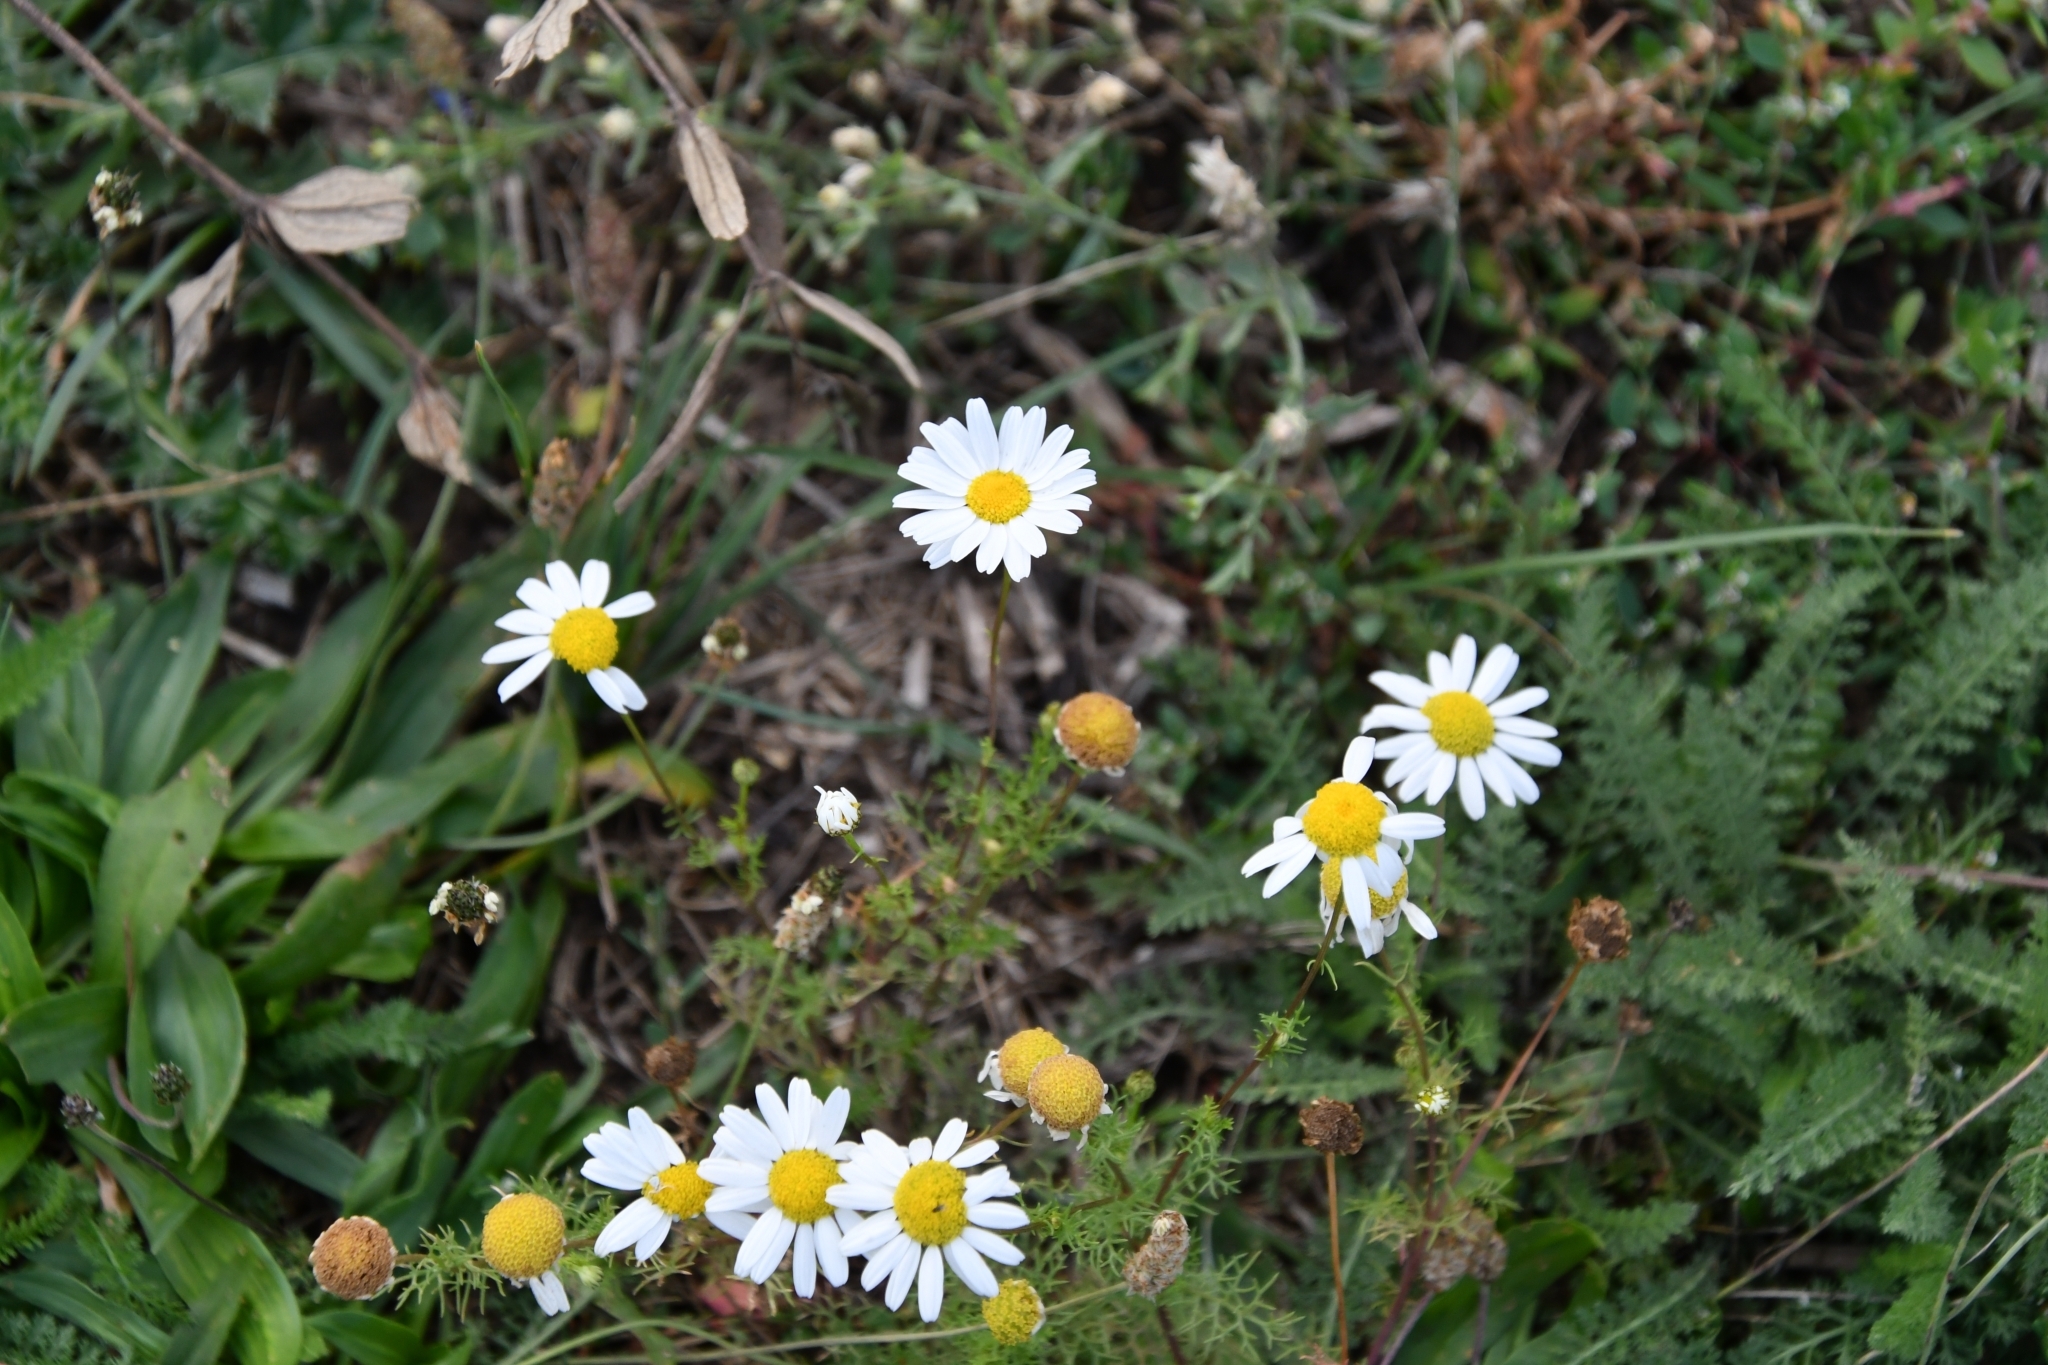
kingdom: Plantae
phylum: Tracheophyta
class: Magnoliopsida
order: Asterales
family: Asteraceae
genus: Tripleurospermum
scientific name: Tripleurospermum inodorum
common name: Scentless mayweed
